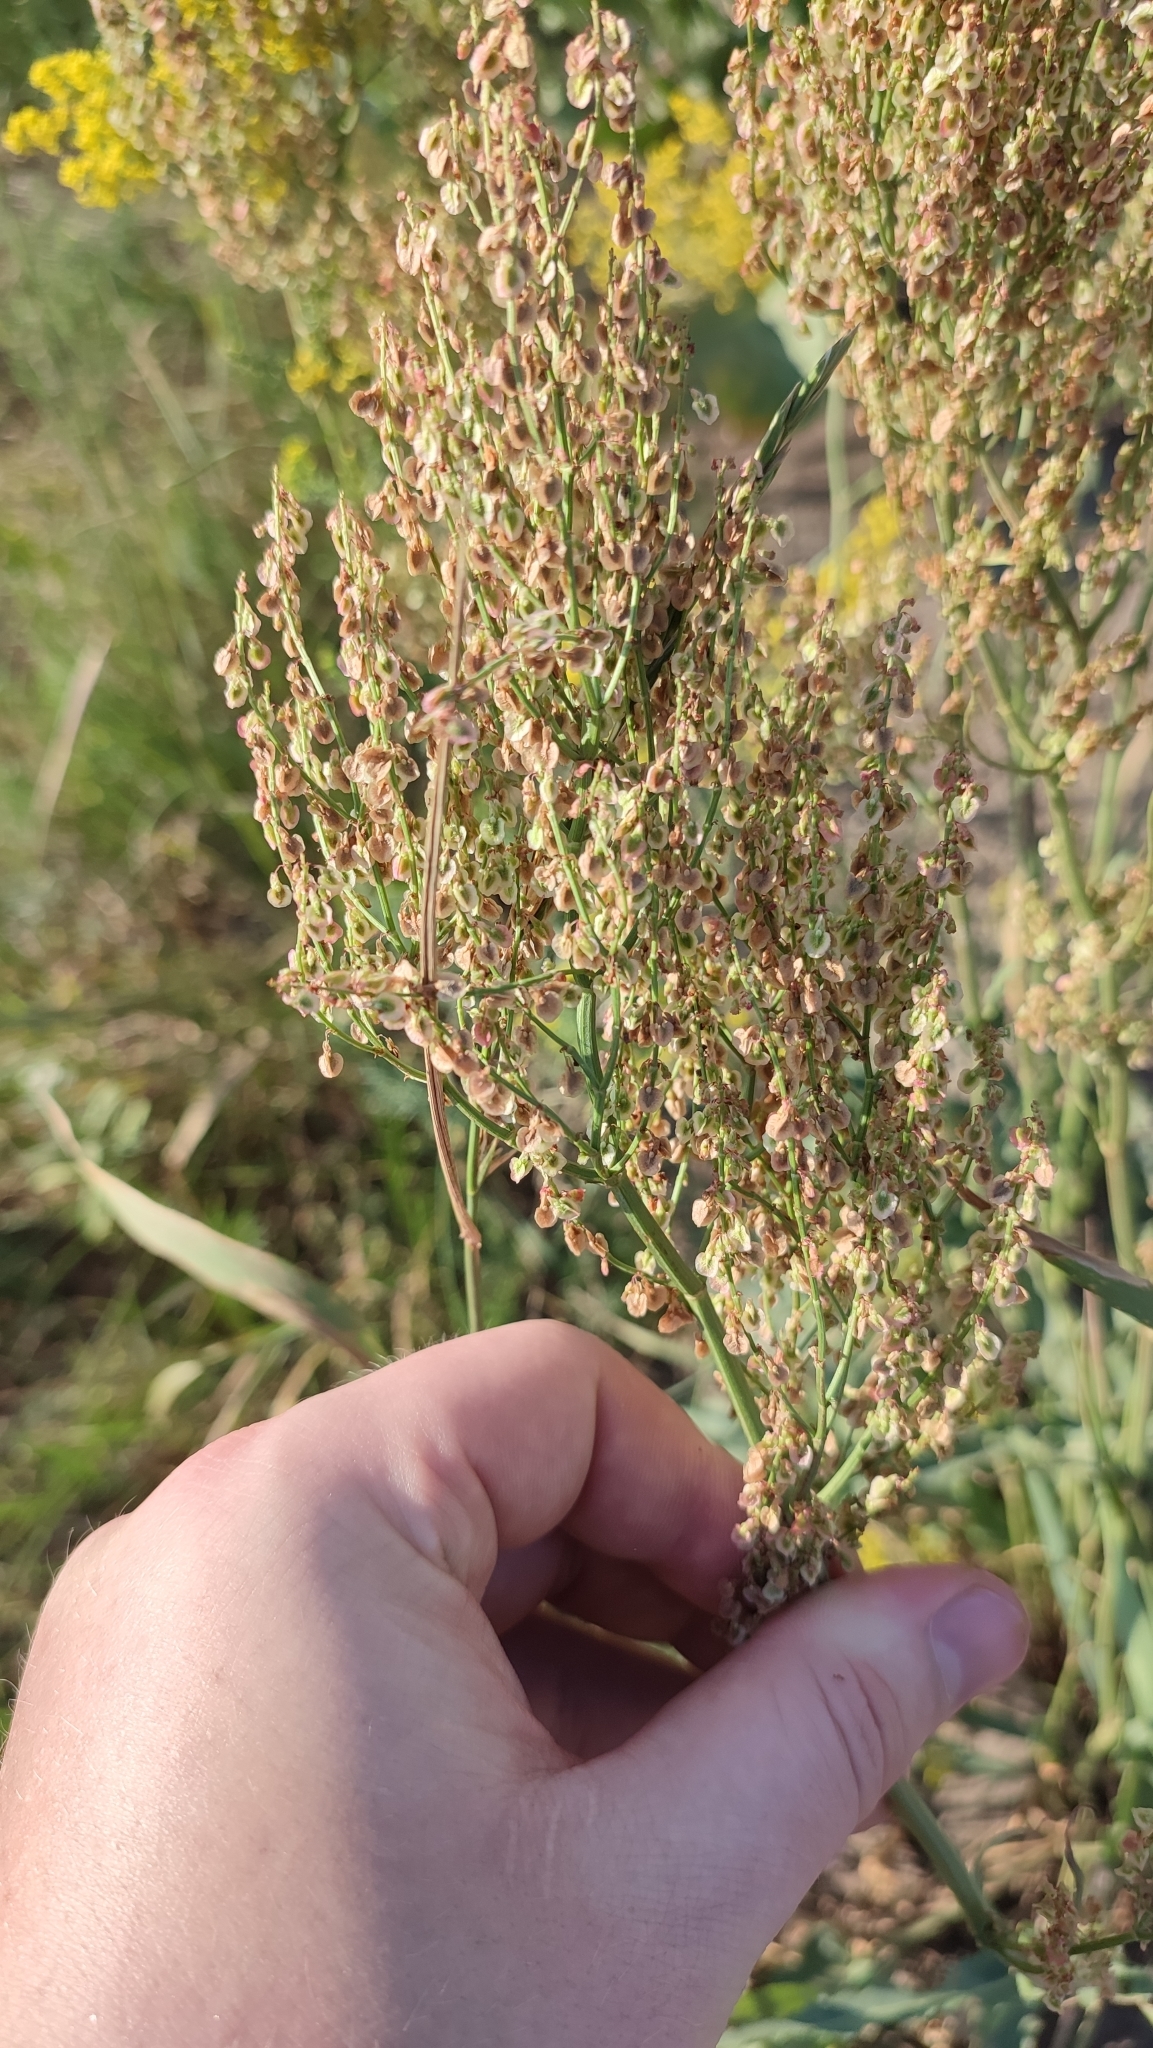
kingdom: Plantae
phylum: Tracheophyta
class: Magnoliopsida
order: Caryophyllales
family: Polygonaceae
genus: Rumex
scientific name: Rumex thyrsiflorus
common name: Garden sorrel
